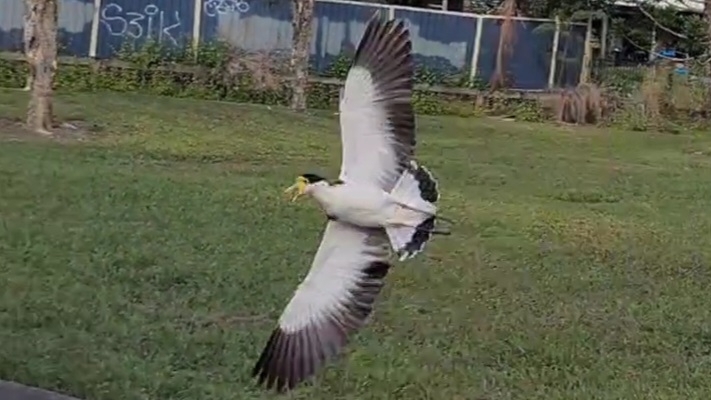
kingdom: Animalia
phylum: Chordata
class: Aves
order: Charadriiformes
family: Charadriidae
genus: Vanellus
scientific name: Vanellus miles
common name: Masked lapwing
